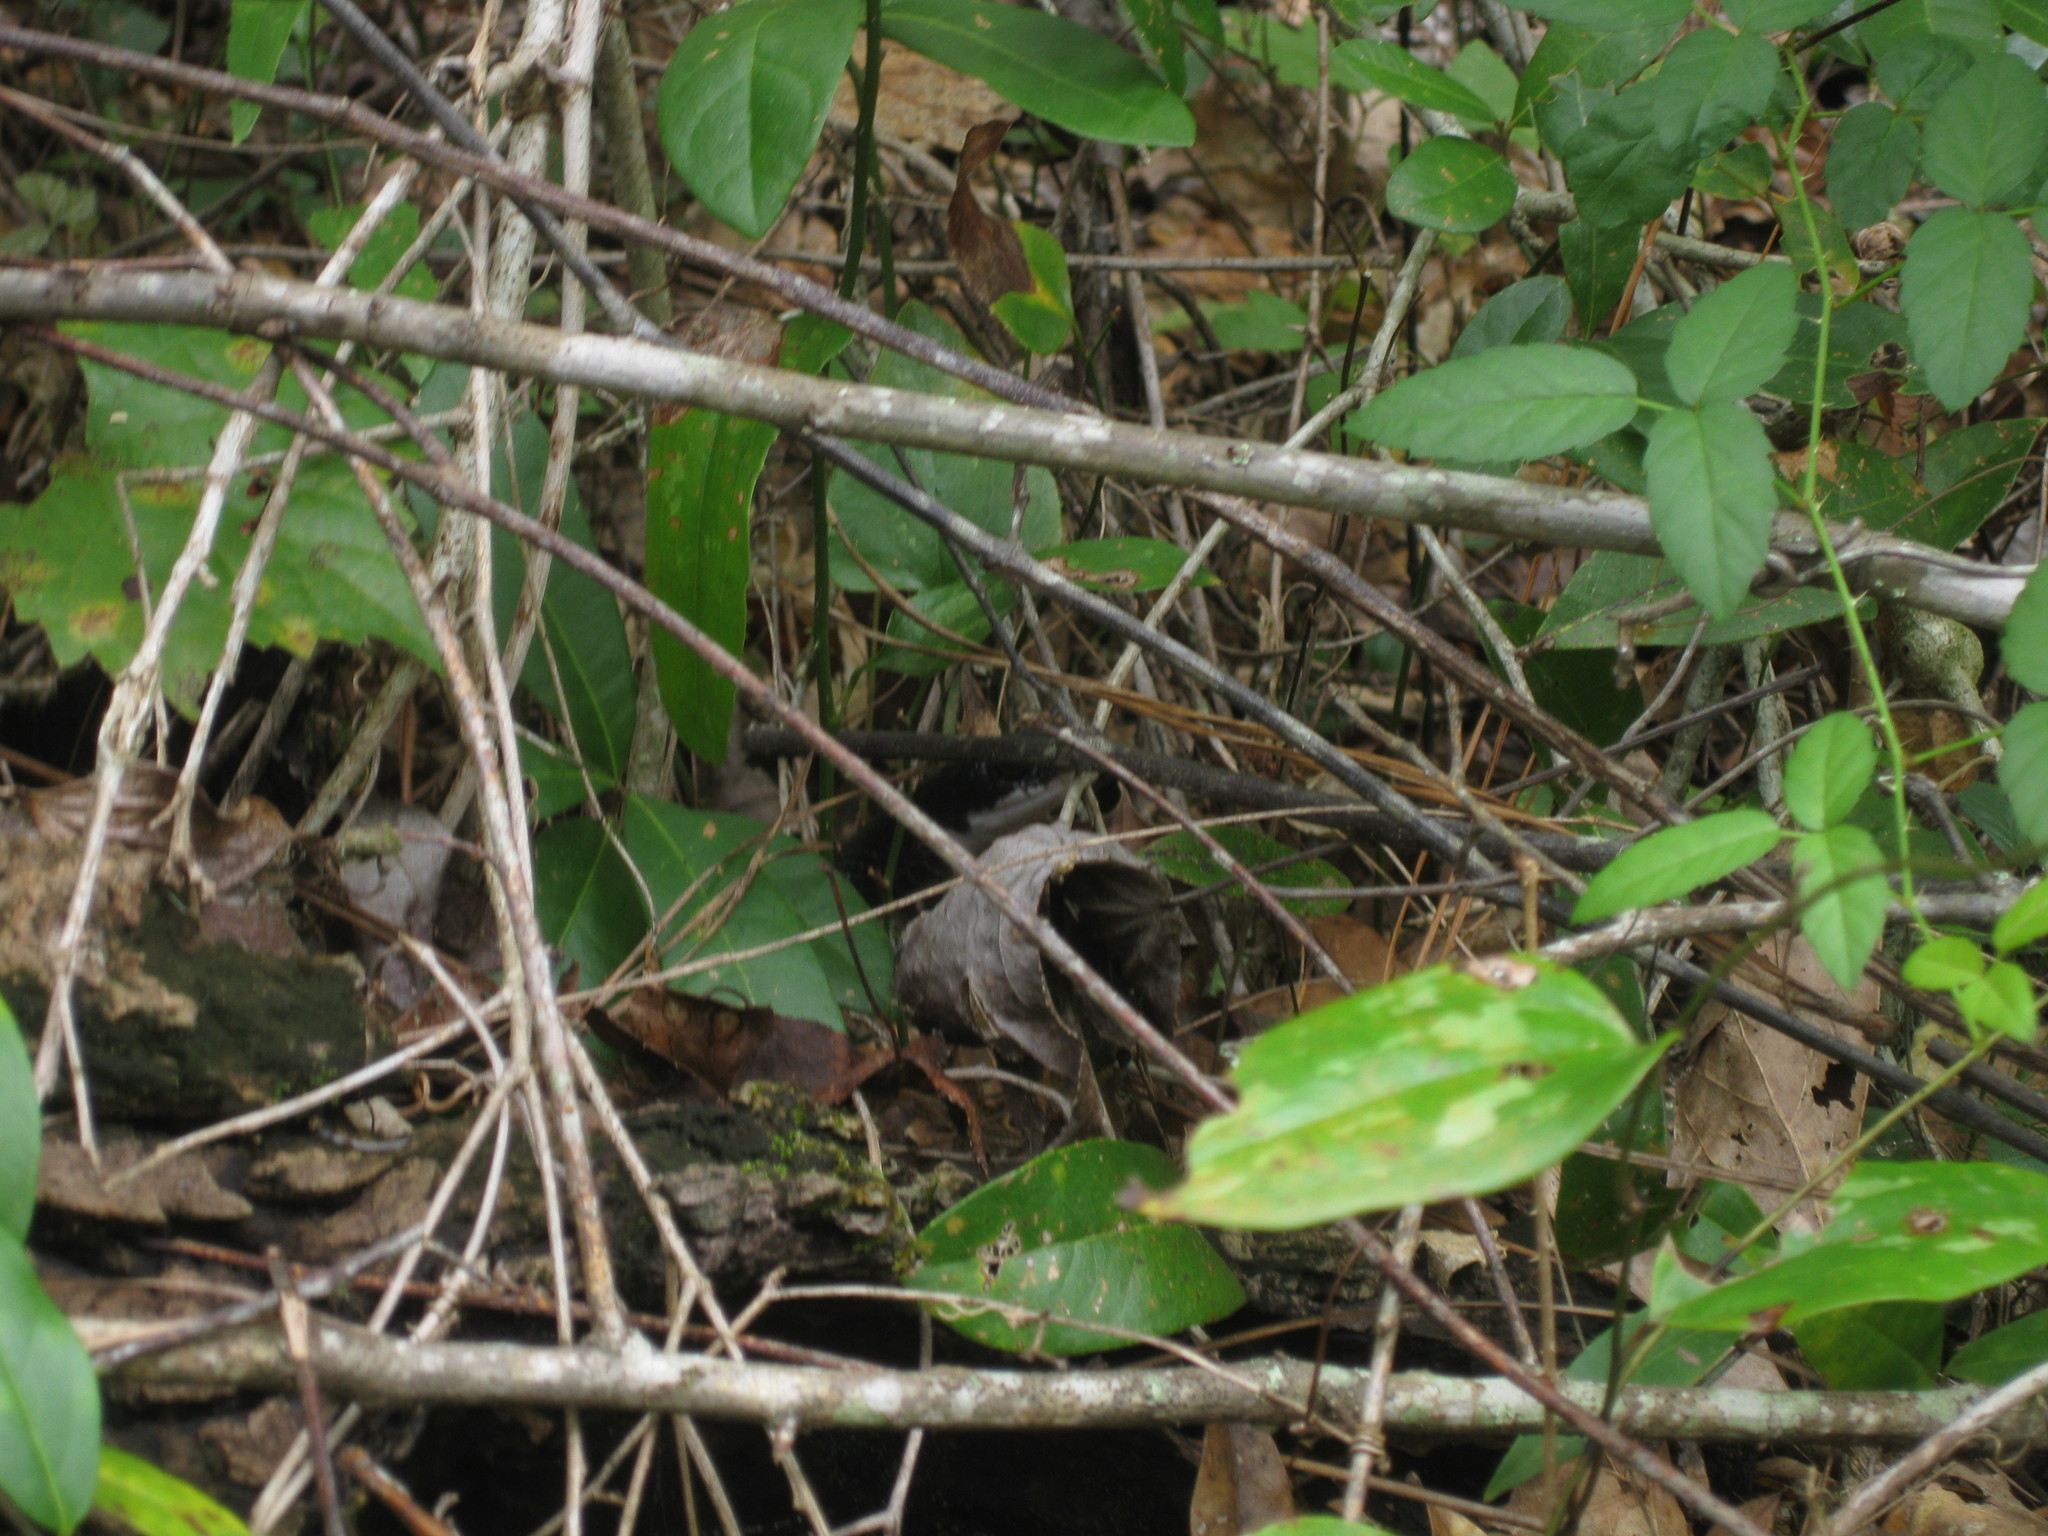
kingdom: Animalia
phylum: Chordata
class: Squamata
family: Colubridae
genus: Coluber
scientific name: Coluber constrictor
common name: Eastern racer
